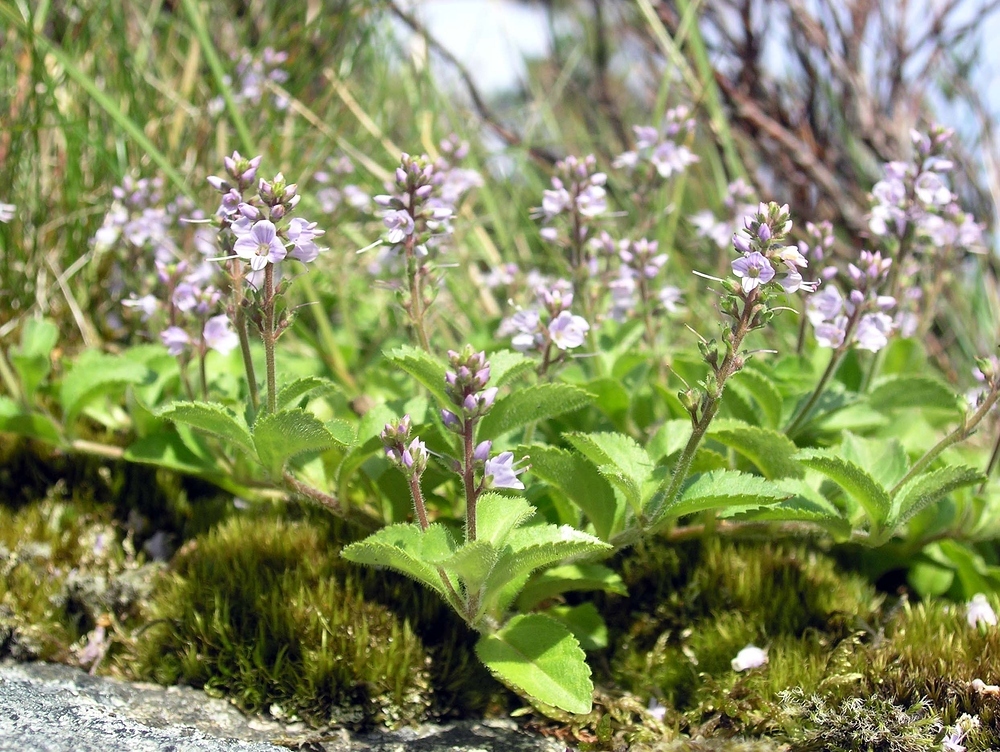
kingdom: Plantae
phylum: Tracheophyta
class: Magnoliopsida
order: Lamiales
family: Plantaginaceae
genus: Veronica
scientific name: Veronica officinalis
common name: Common speedwell
